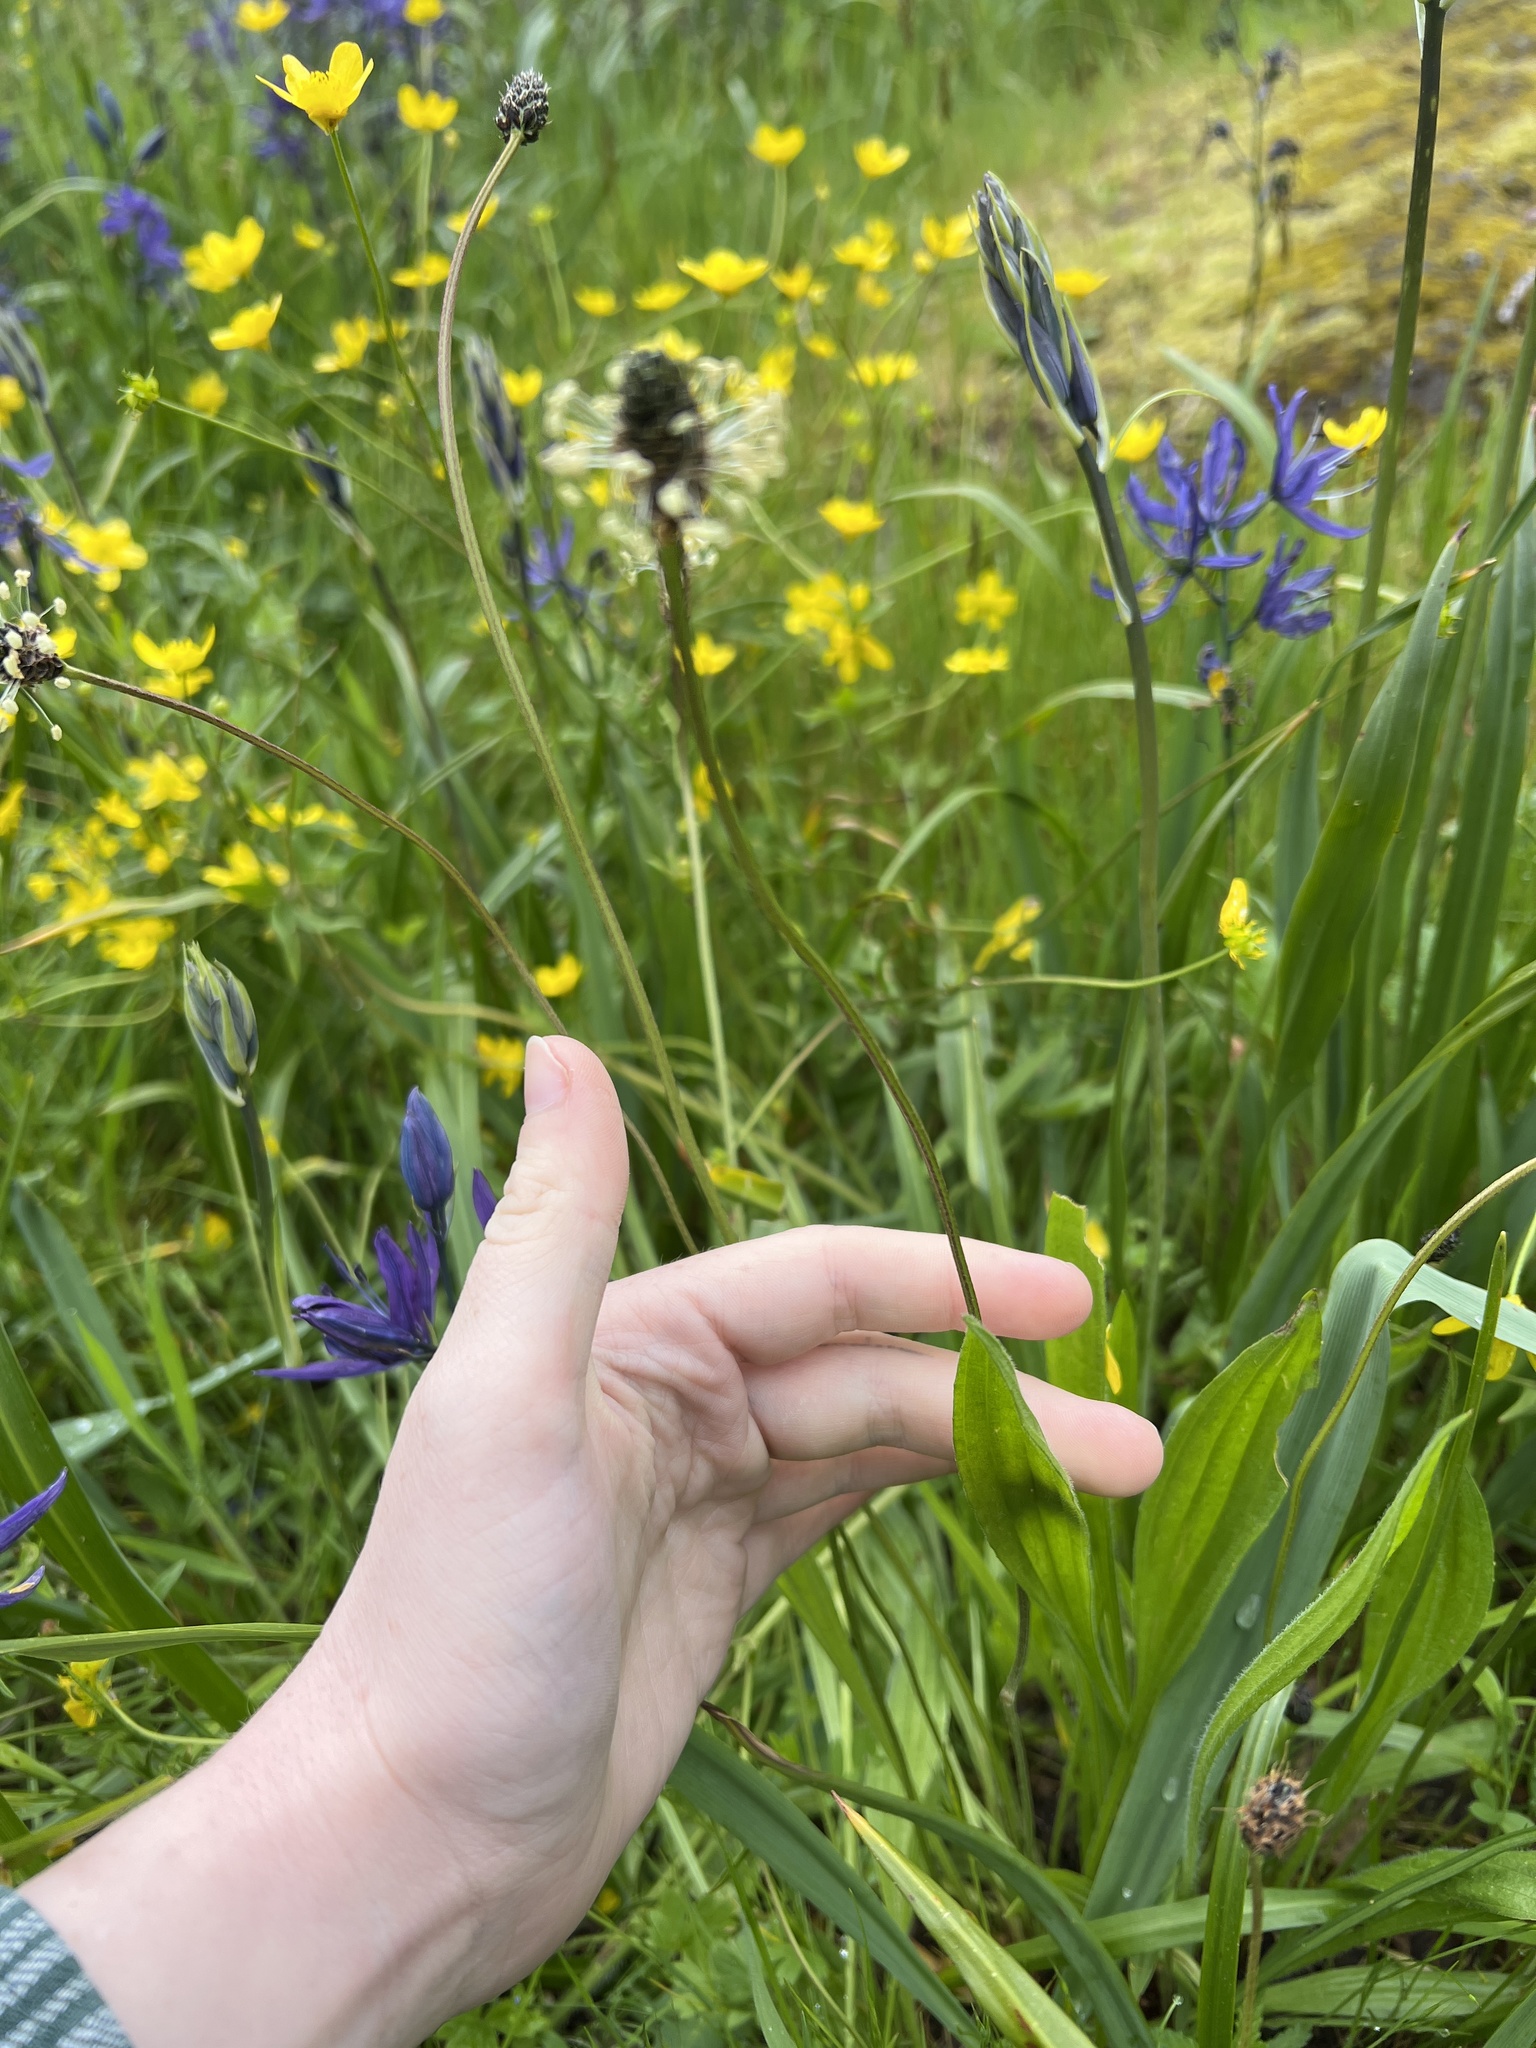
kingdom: Plantae
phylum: Tracheophyta
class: Magnoliopsida
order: Lamiales
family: Plantaginaceae
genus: Plantago
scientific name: Plantago lanceolata
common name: Ribwort plantain
